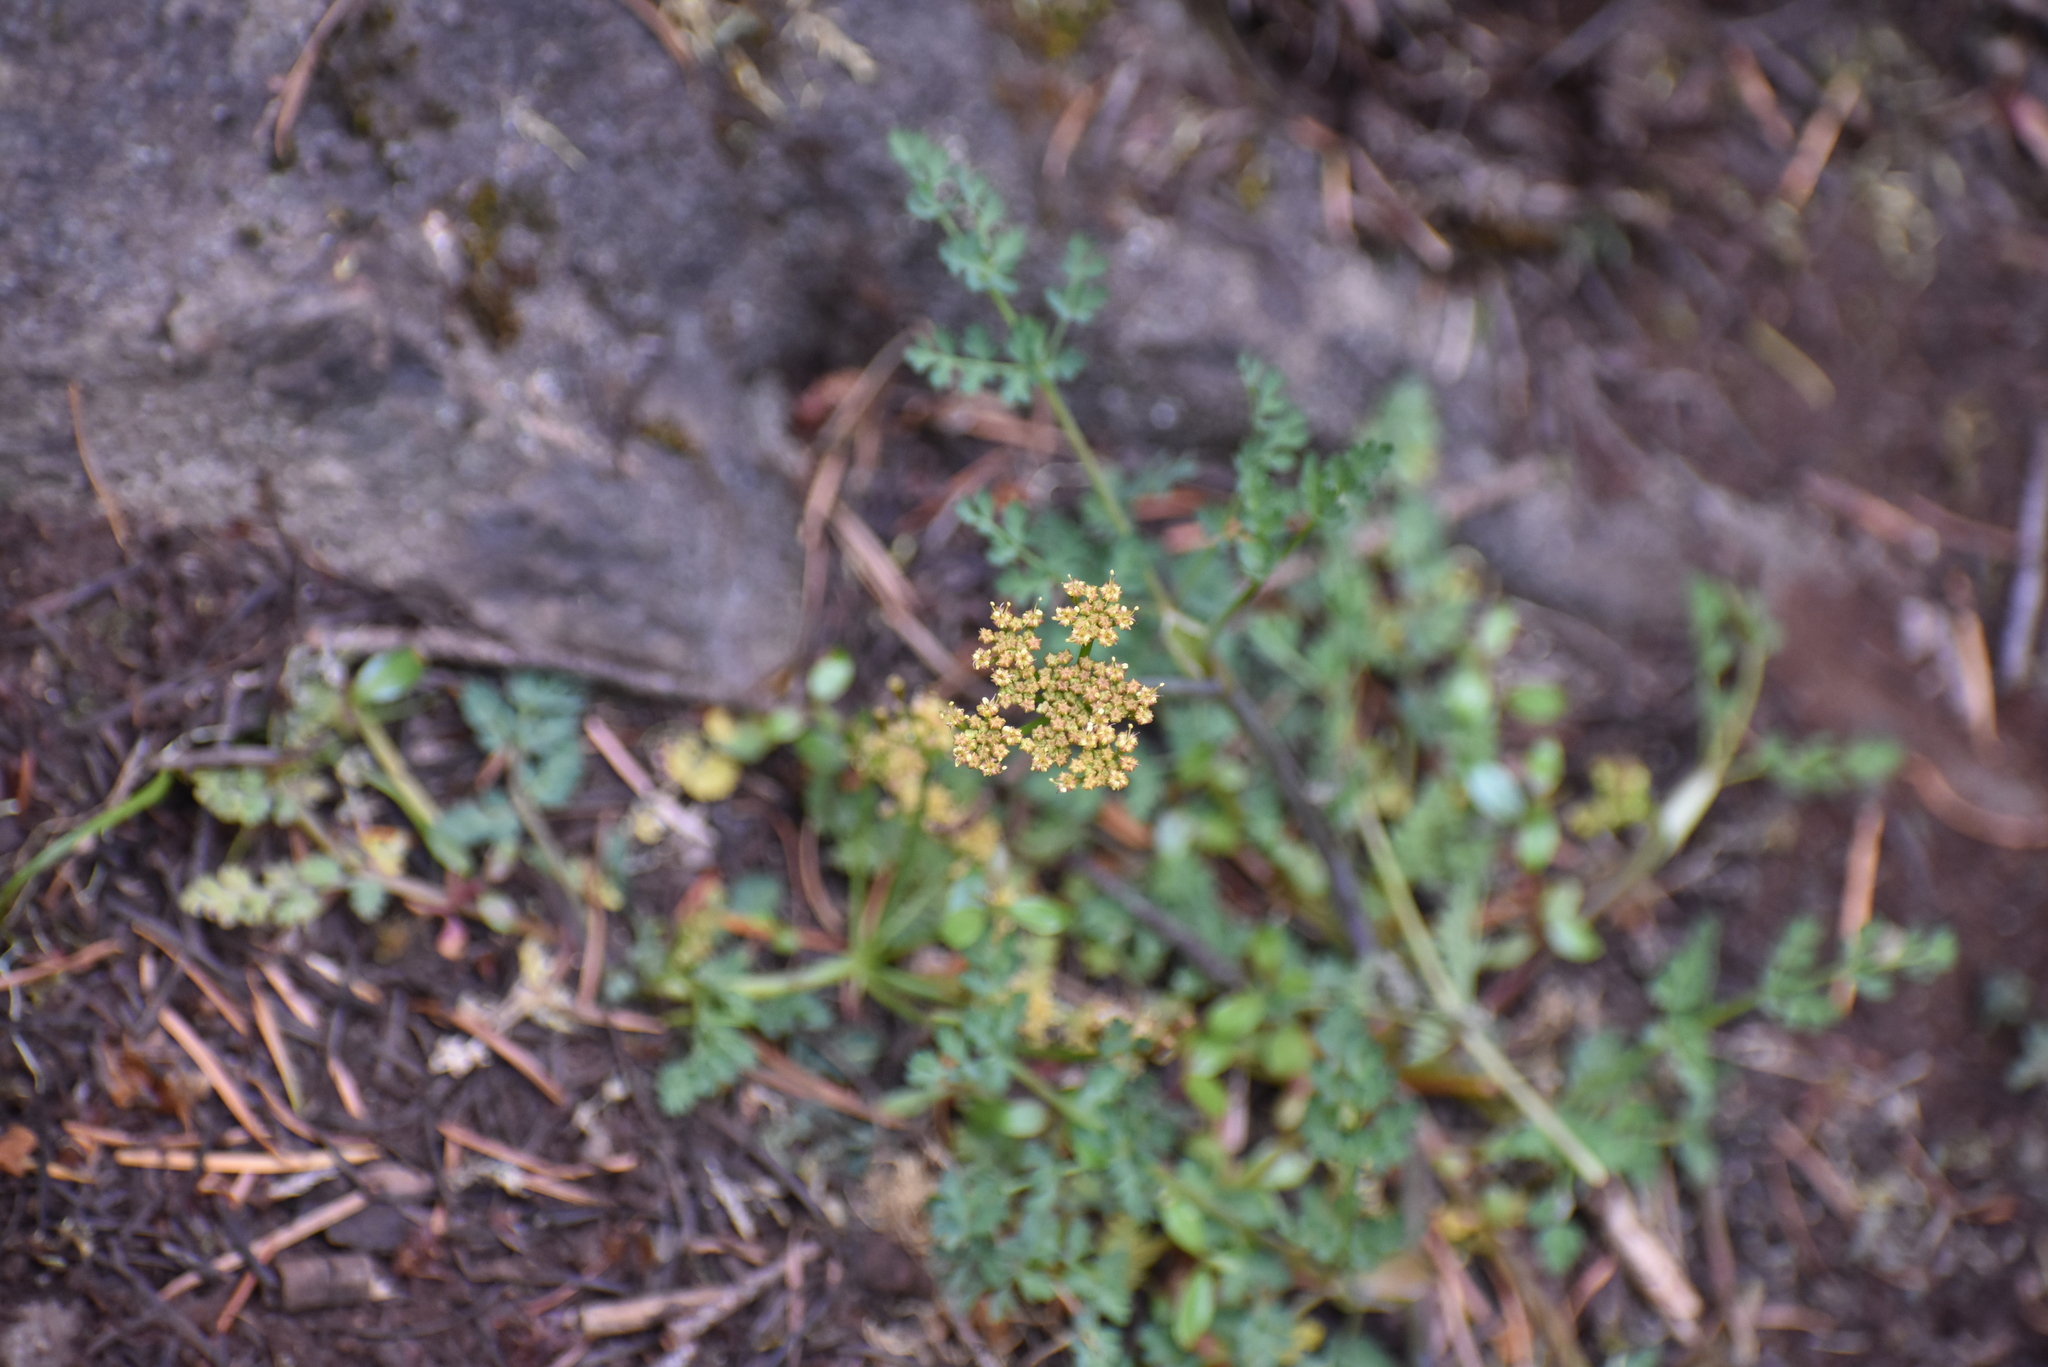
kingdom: Plantae
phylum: Tracheophyta
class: Magnoliopsida
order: Apiales
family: Apiaceae
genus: Lomatium
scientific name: Lomatium martindalei
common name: Cascade desert-parsley
